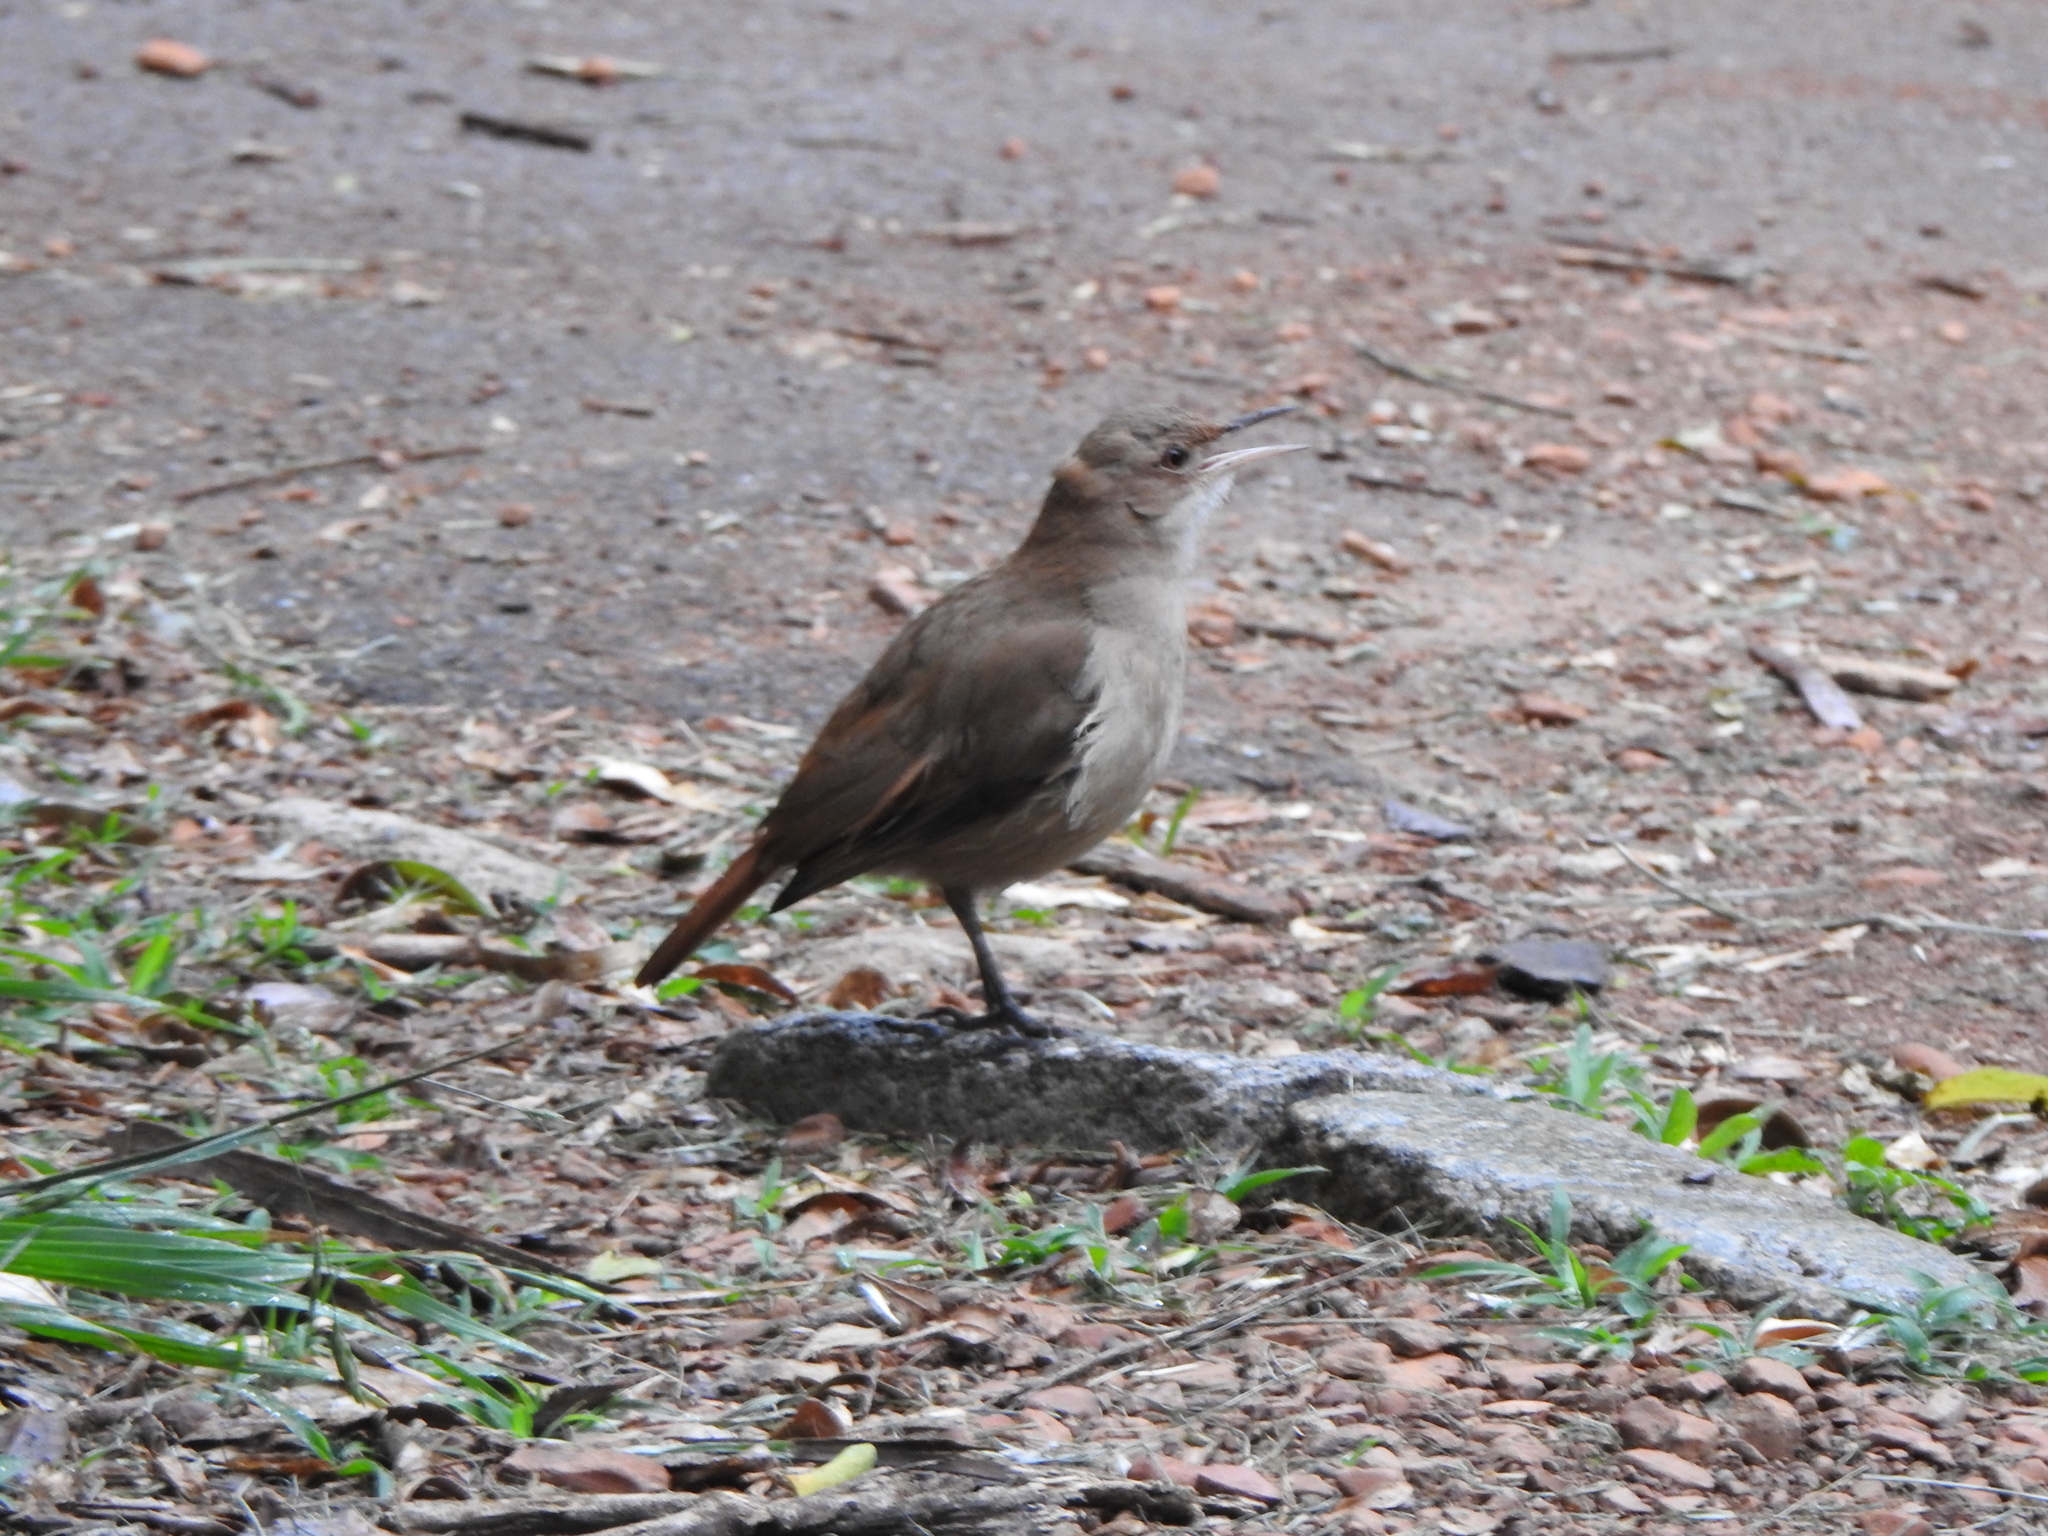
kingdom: Animalia
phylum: Chordata
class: Aves
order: Passeriformes
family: Furnariidae
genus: Furnarius
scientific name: Furnarius rufus
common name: Rufous hornero
